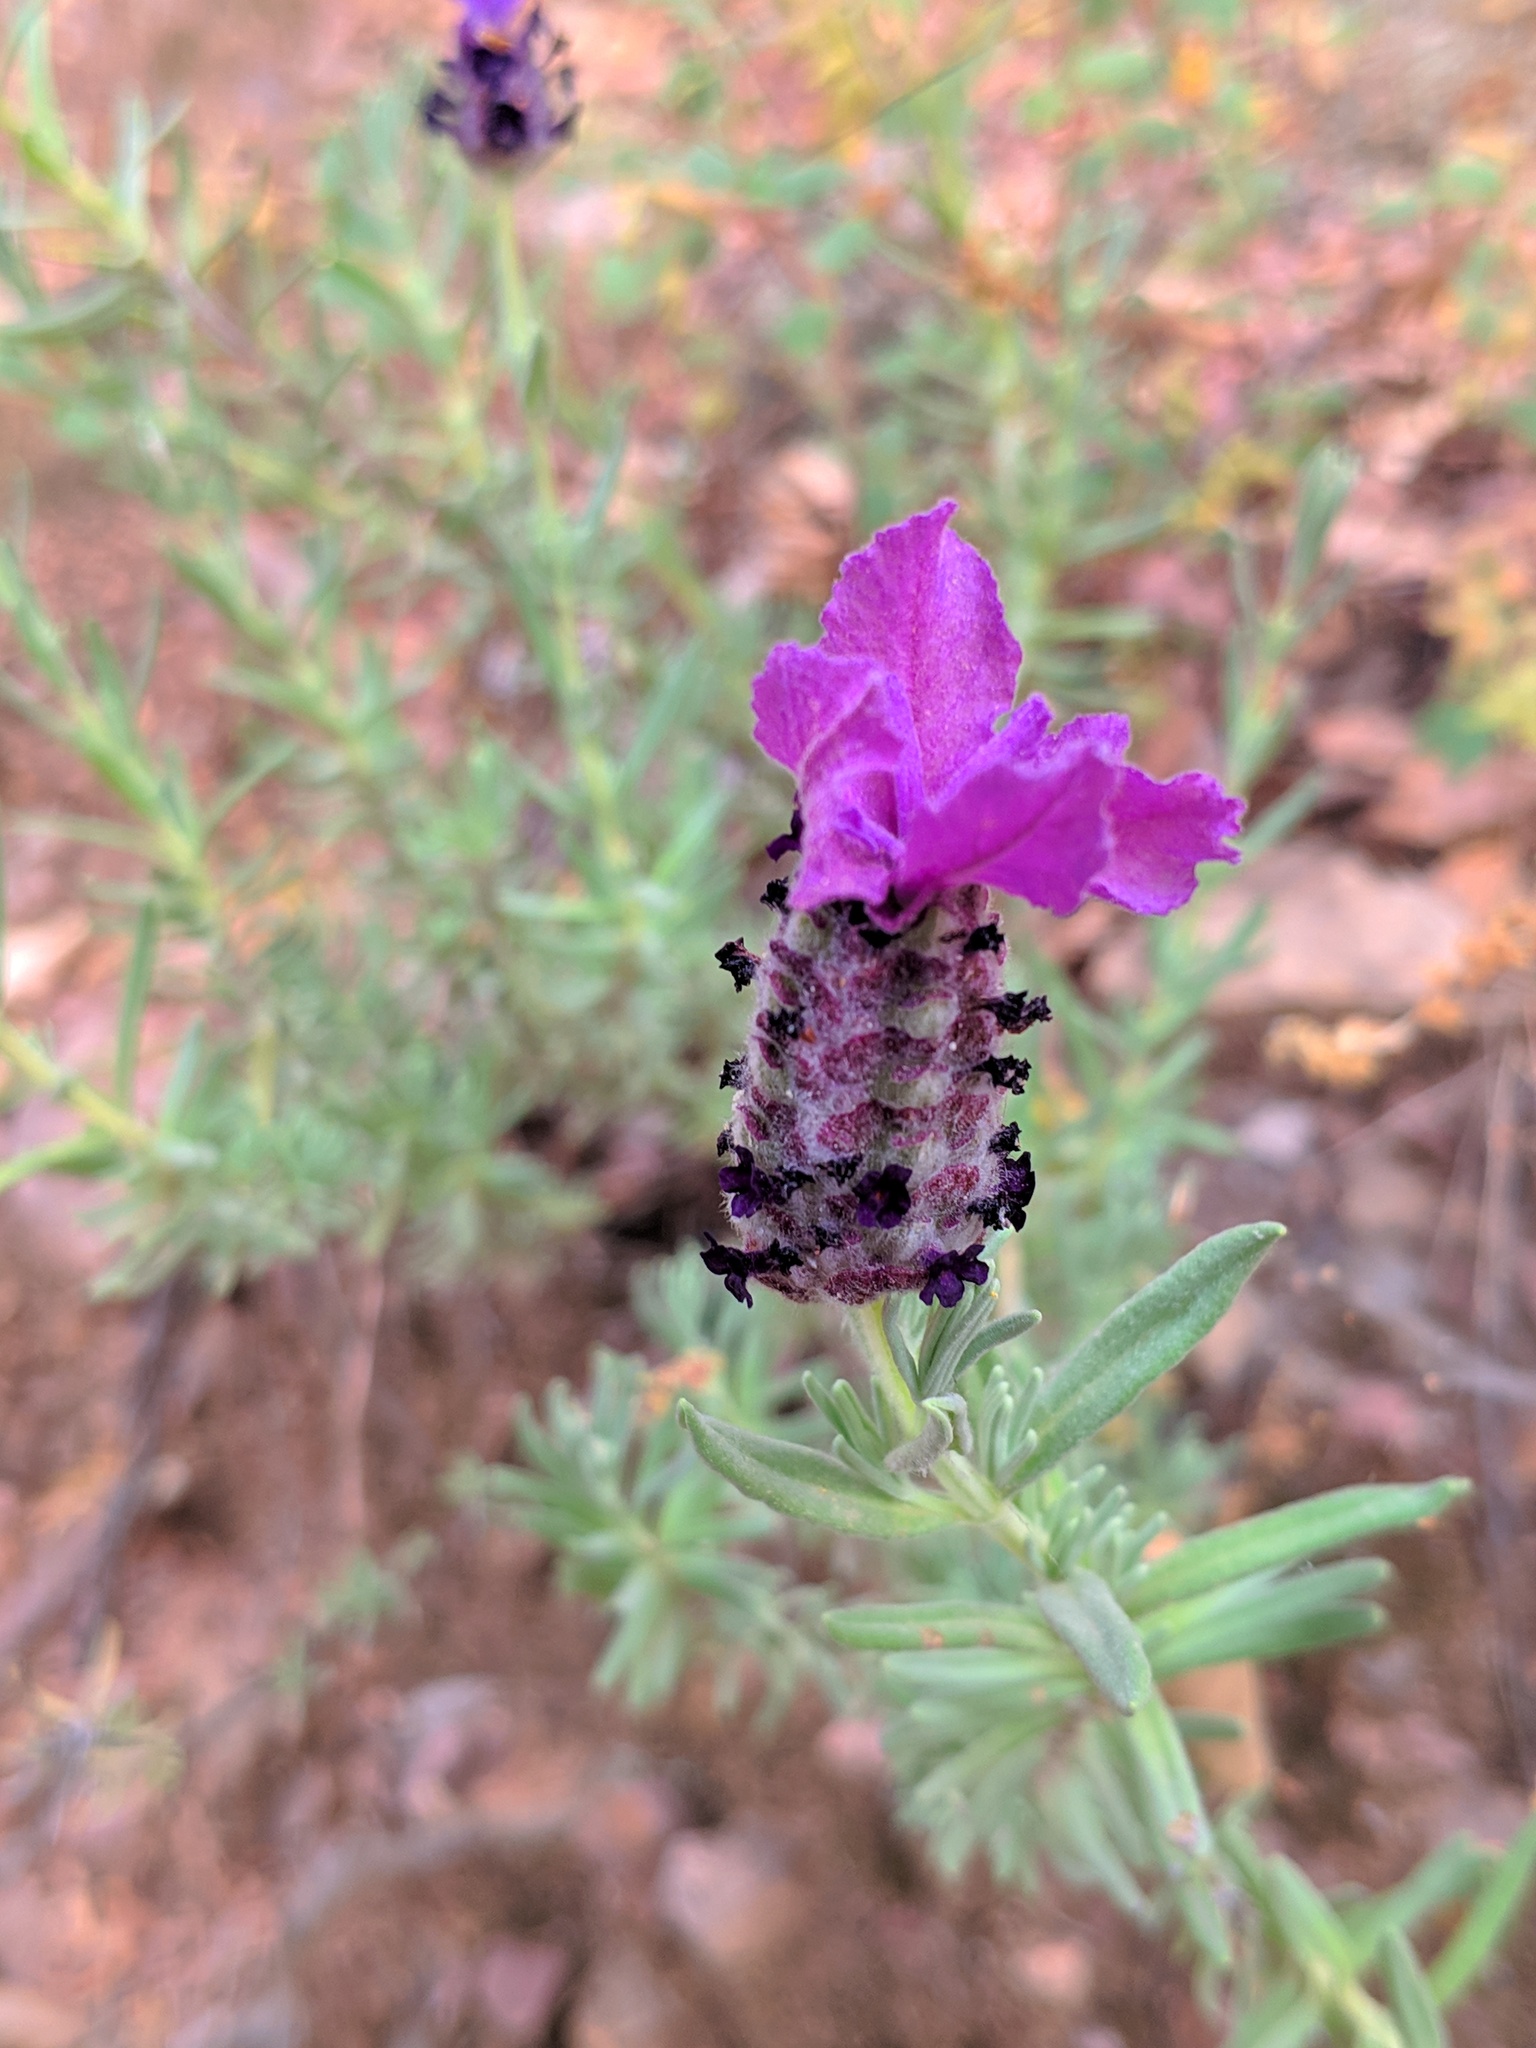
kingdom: Plantae
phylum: Tracheophyta
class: Magnoliopsida
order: Lamiales
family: Lamiaceae
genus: Lavandula
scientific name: Lavandula stoechas
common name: French lavender
